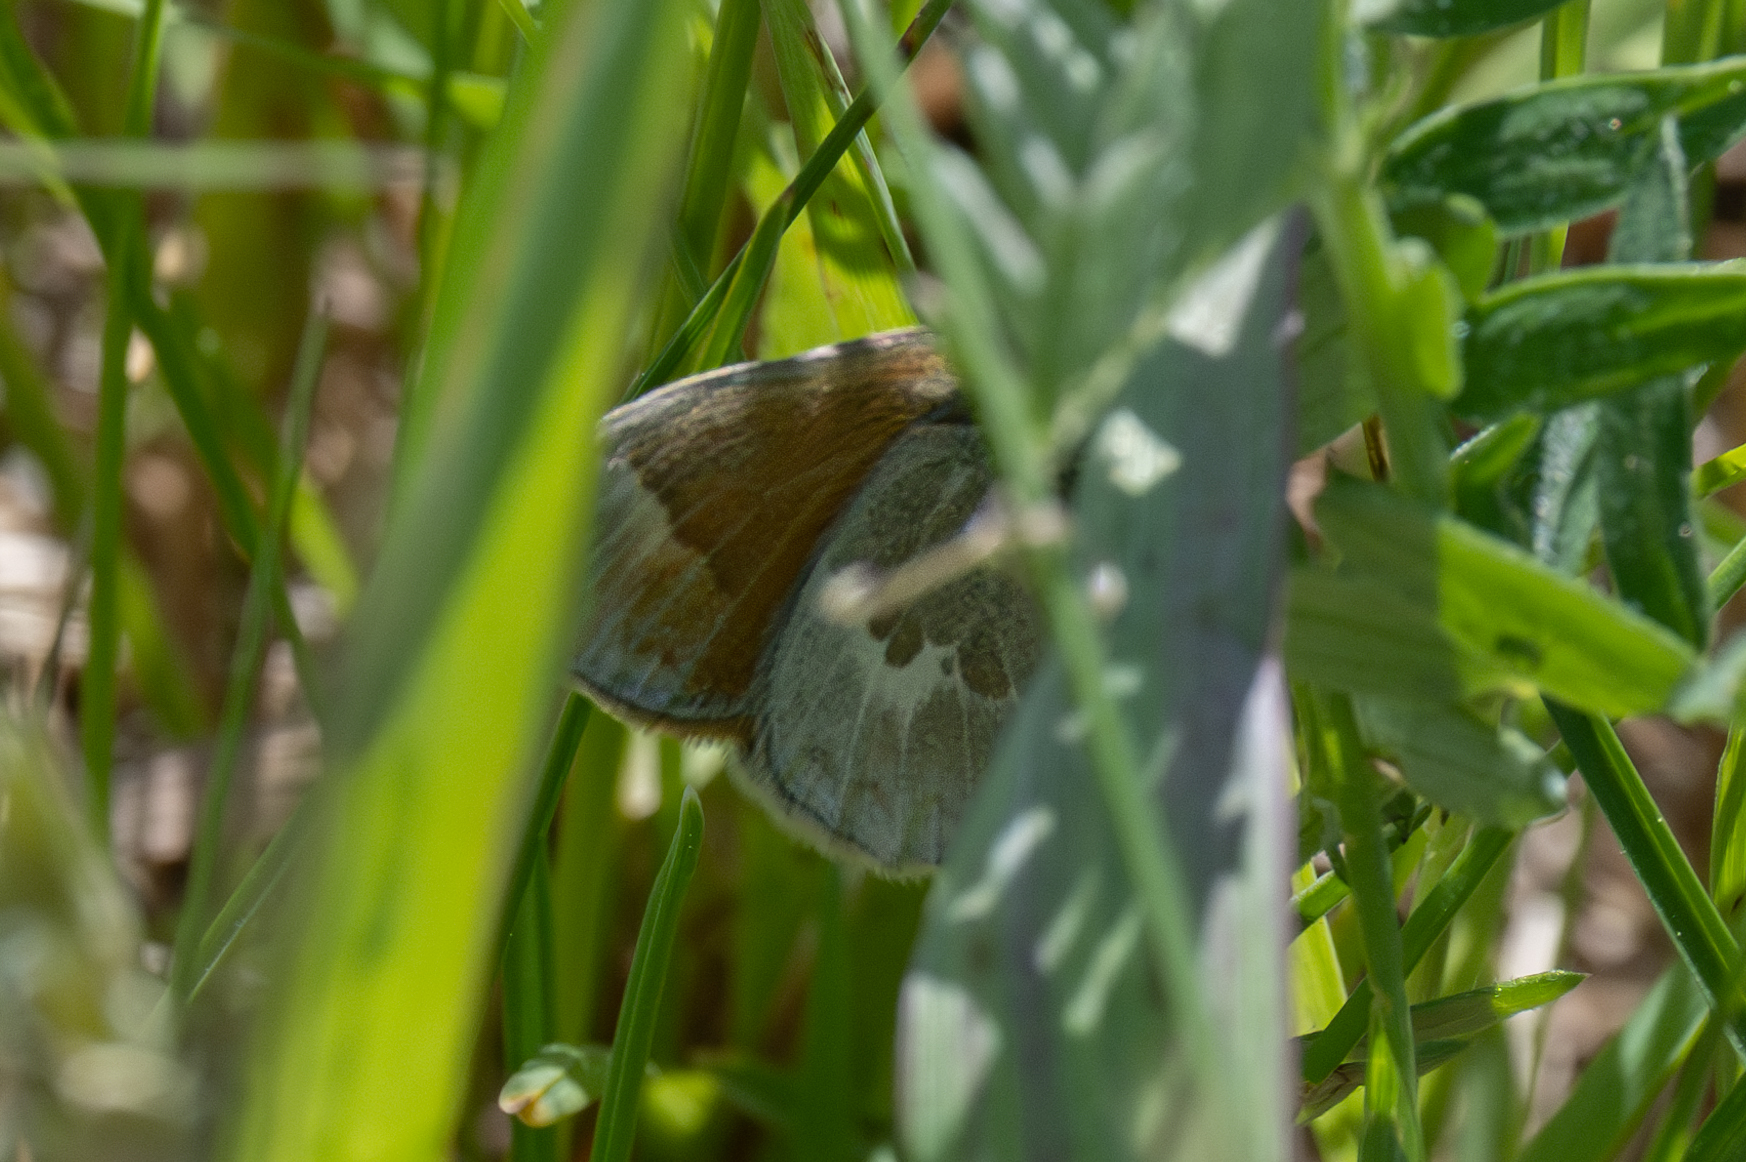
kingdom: Animalia
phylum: Arthropoda
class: Insecta
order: Lepidoptera
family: Nymphalidae
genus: Coenonympha
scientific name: Coenonympha california
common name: Common ringlet
